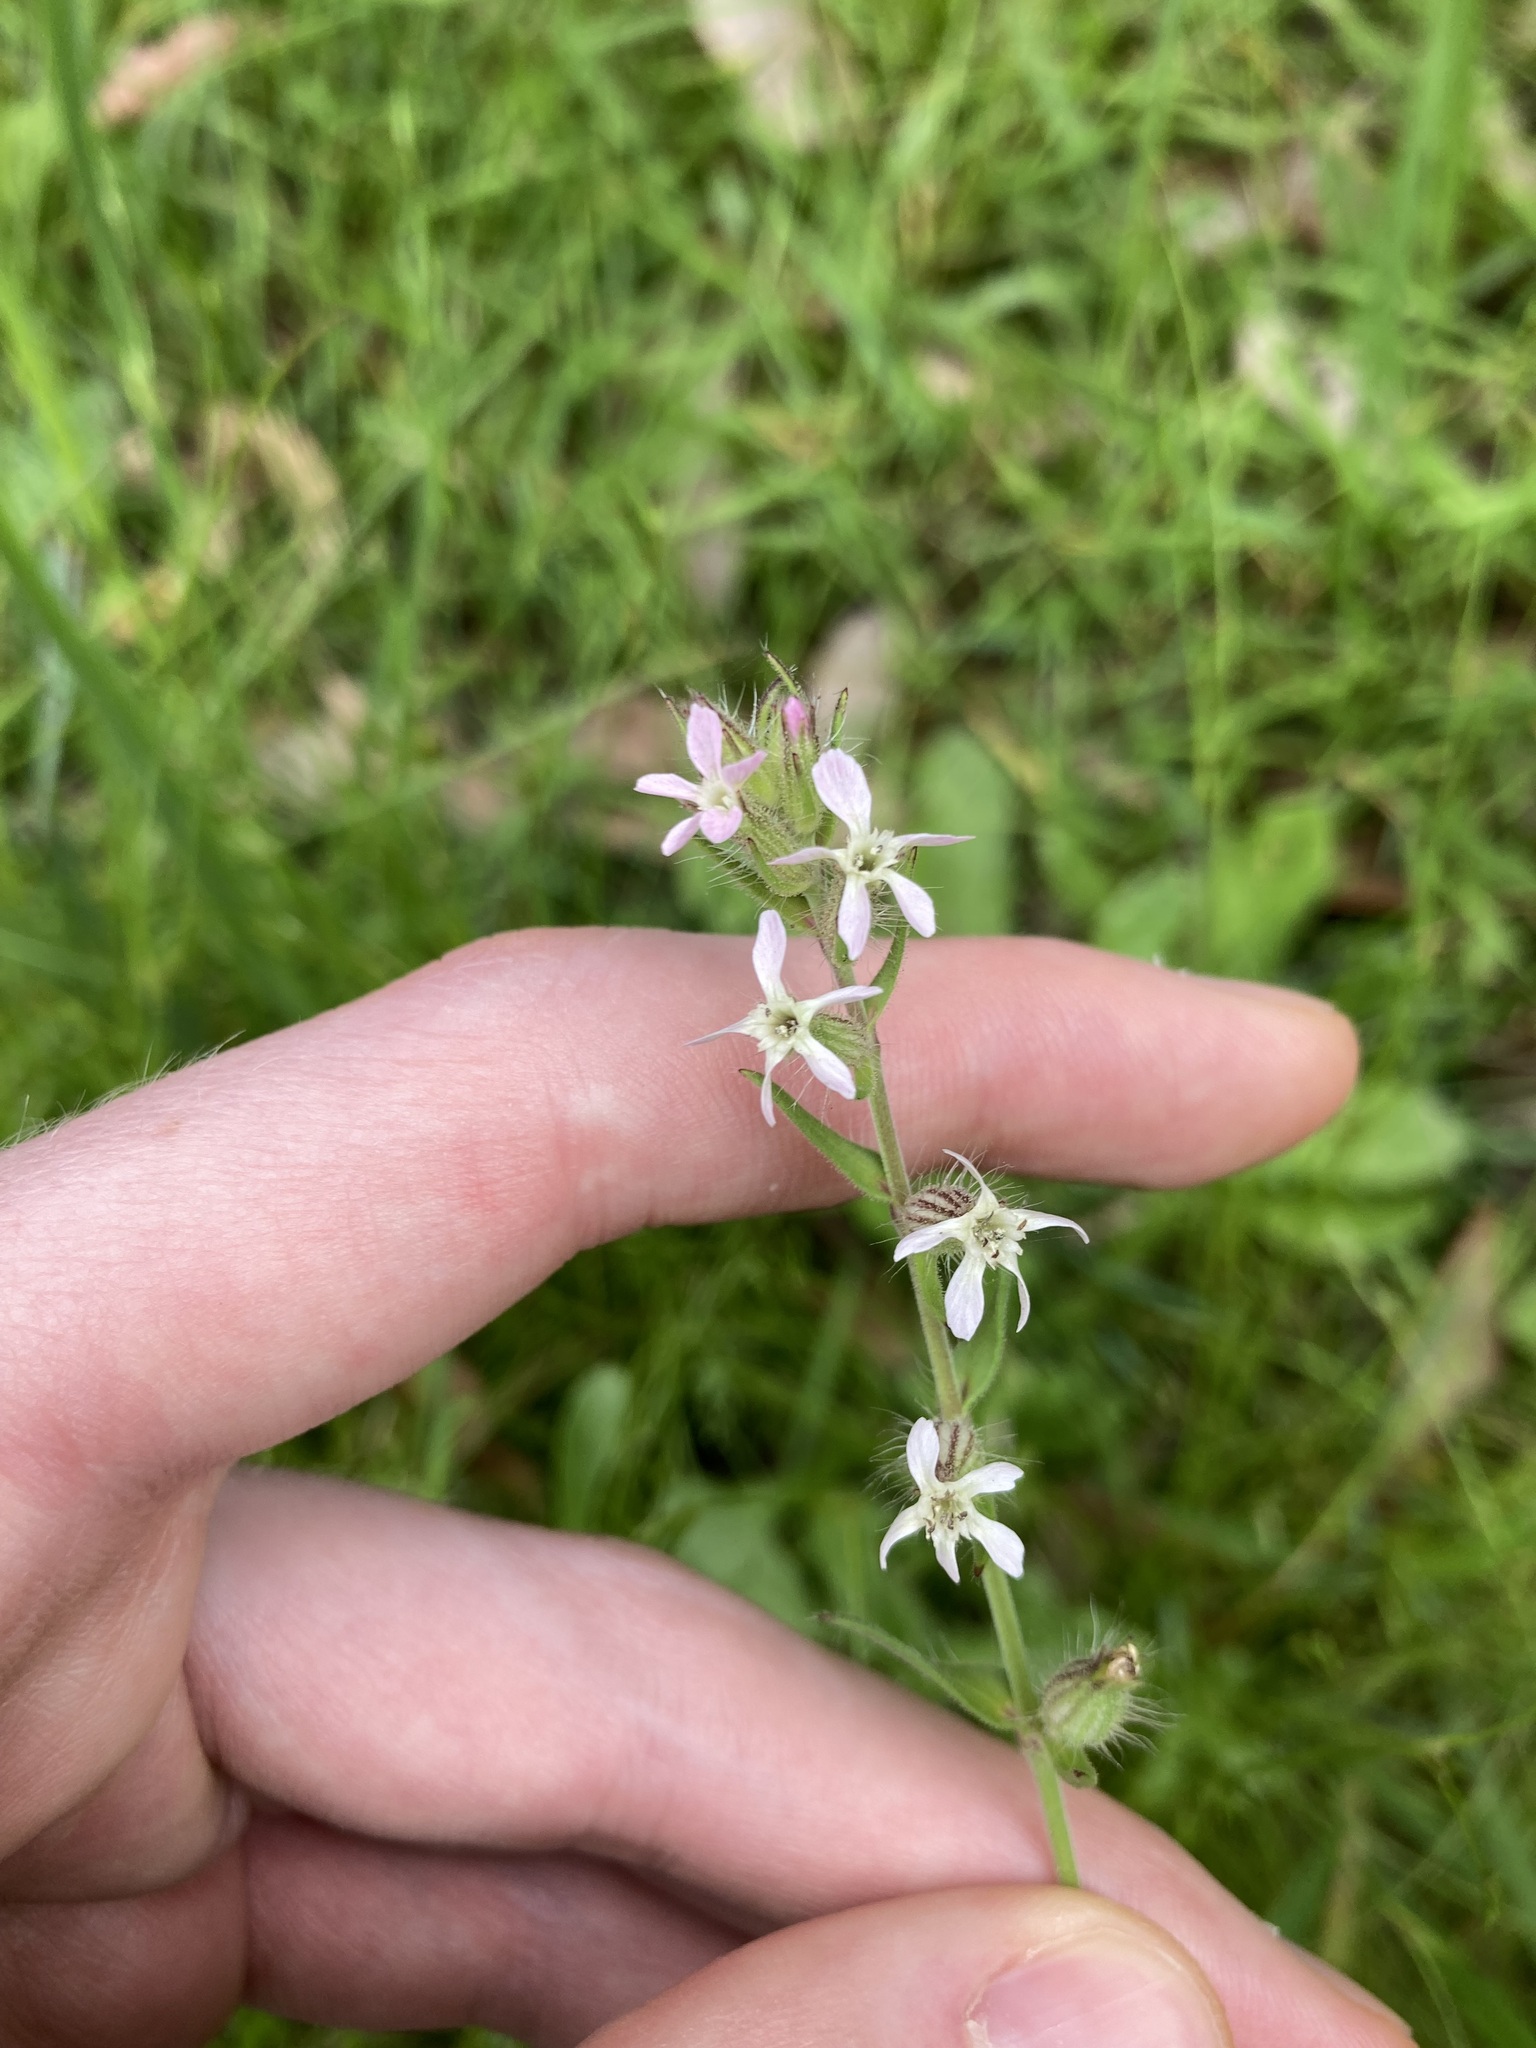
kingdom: Plantae
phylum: Tracheophyta
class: Magnoliopsida
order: Caryophyllales
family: Caryophyllaceae
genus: Silene
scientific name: Silene gallica
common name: Small-flowered catchfly
